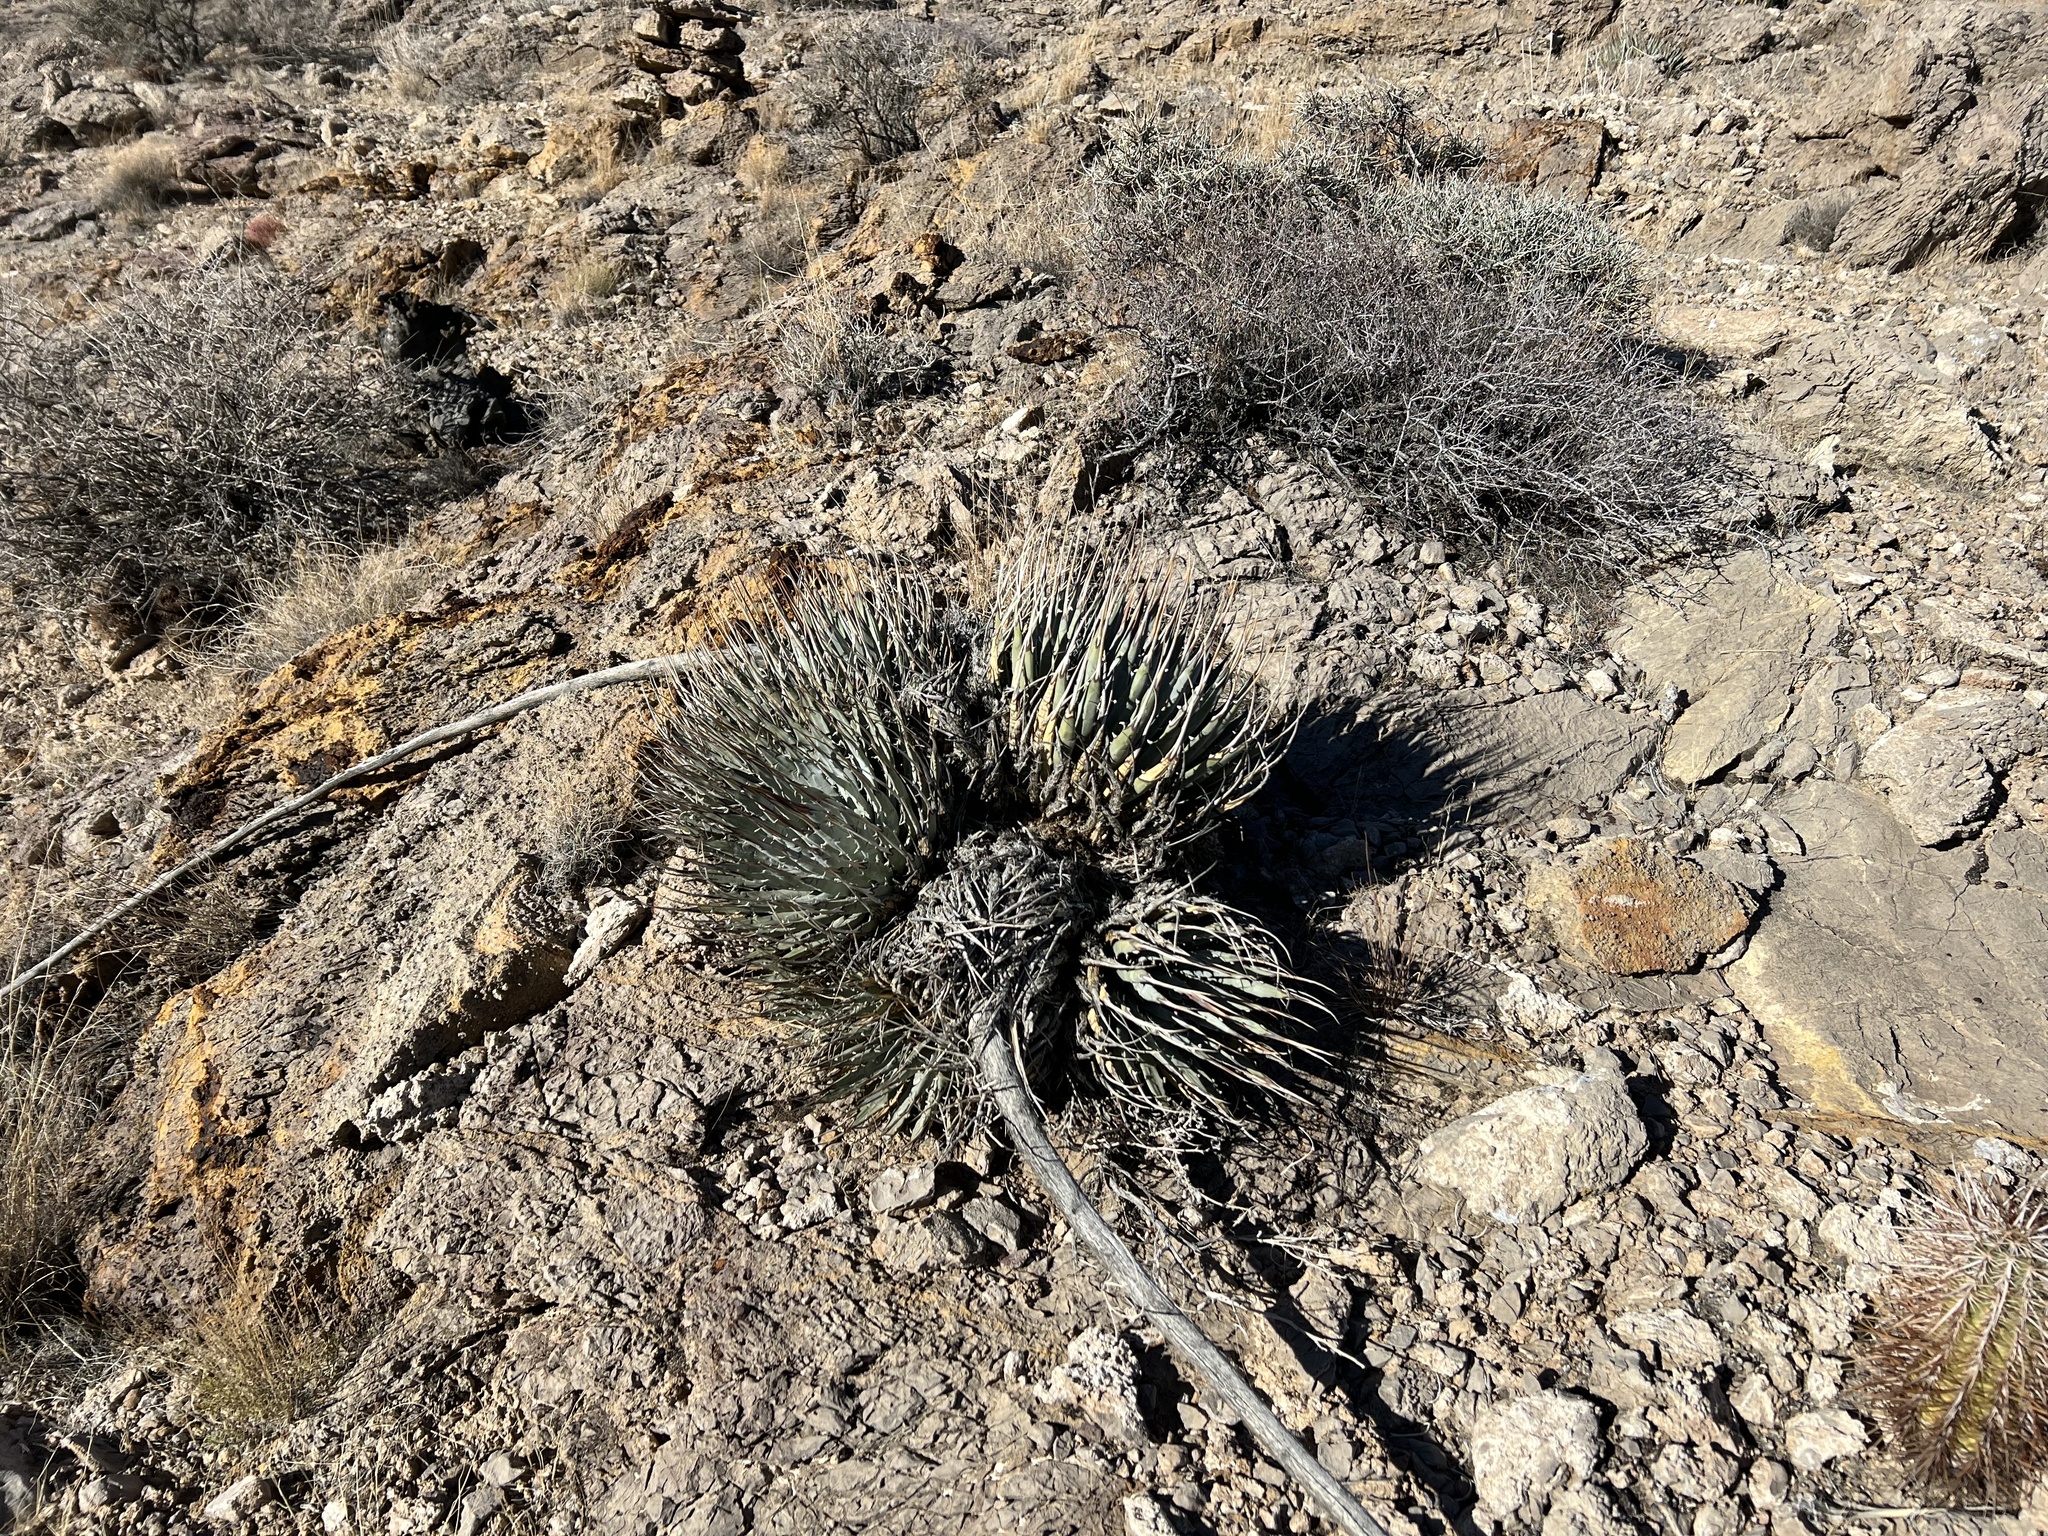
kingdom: Plantae
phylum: Tracheophyta
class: Liliopsida
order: Asparagales
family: Asparagaceae
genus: Agave
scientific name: Agave utahensis
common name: Utah agave
